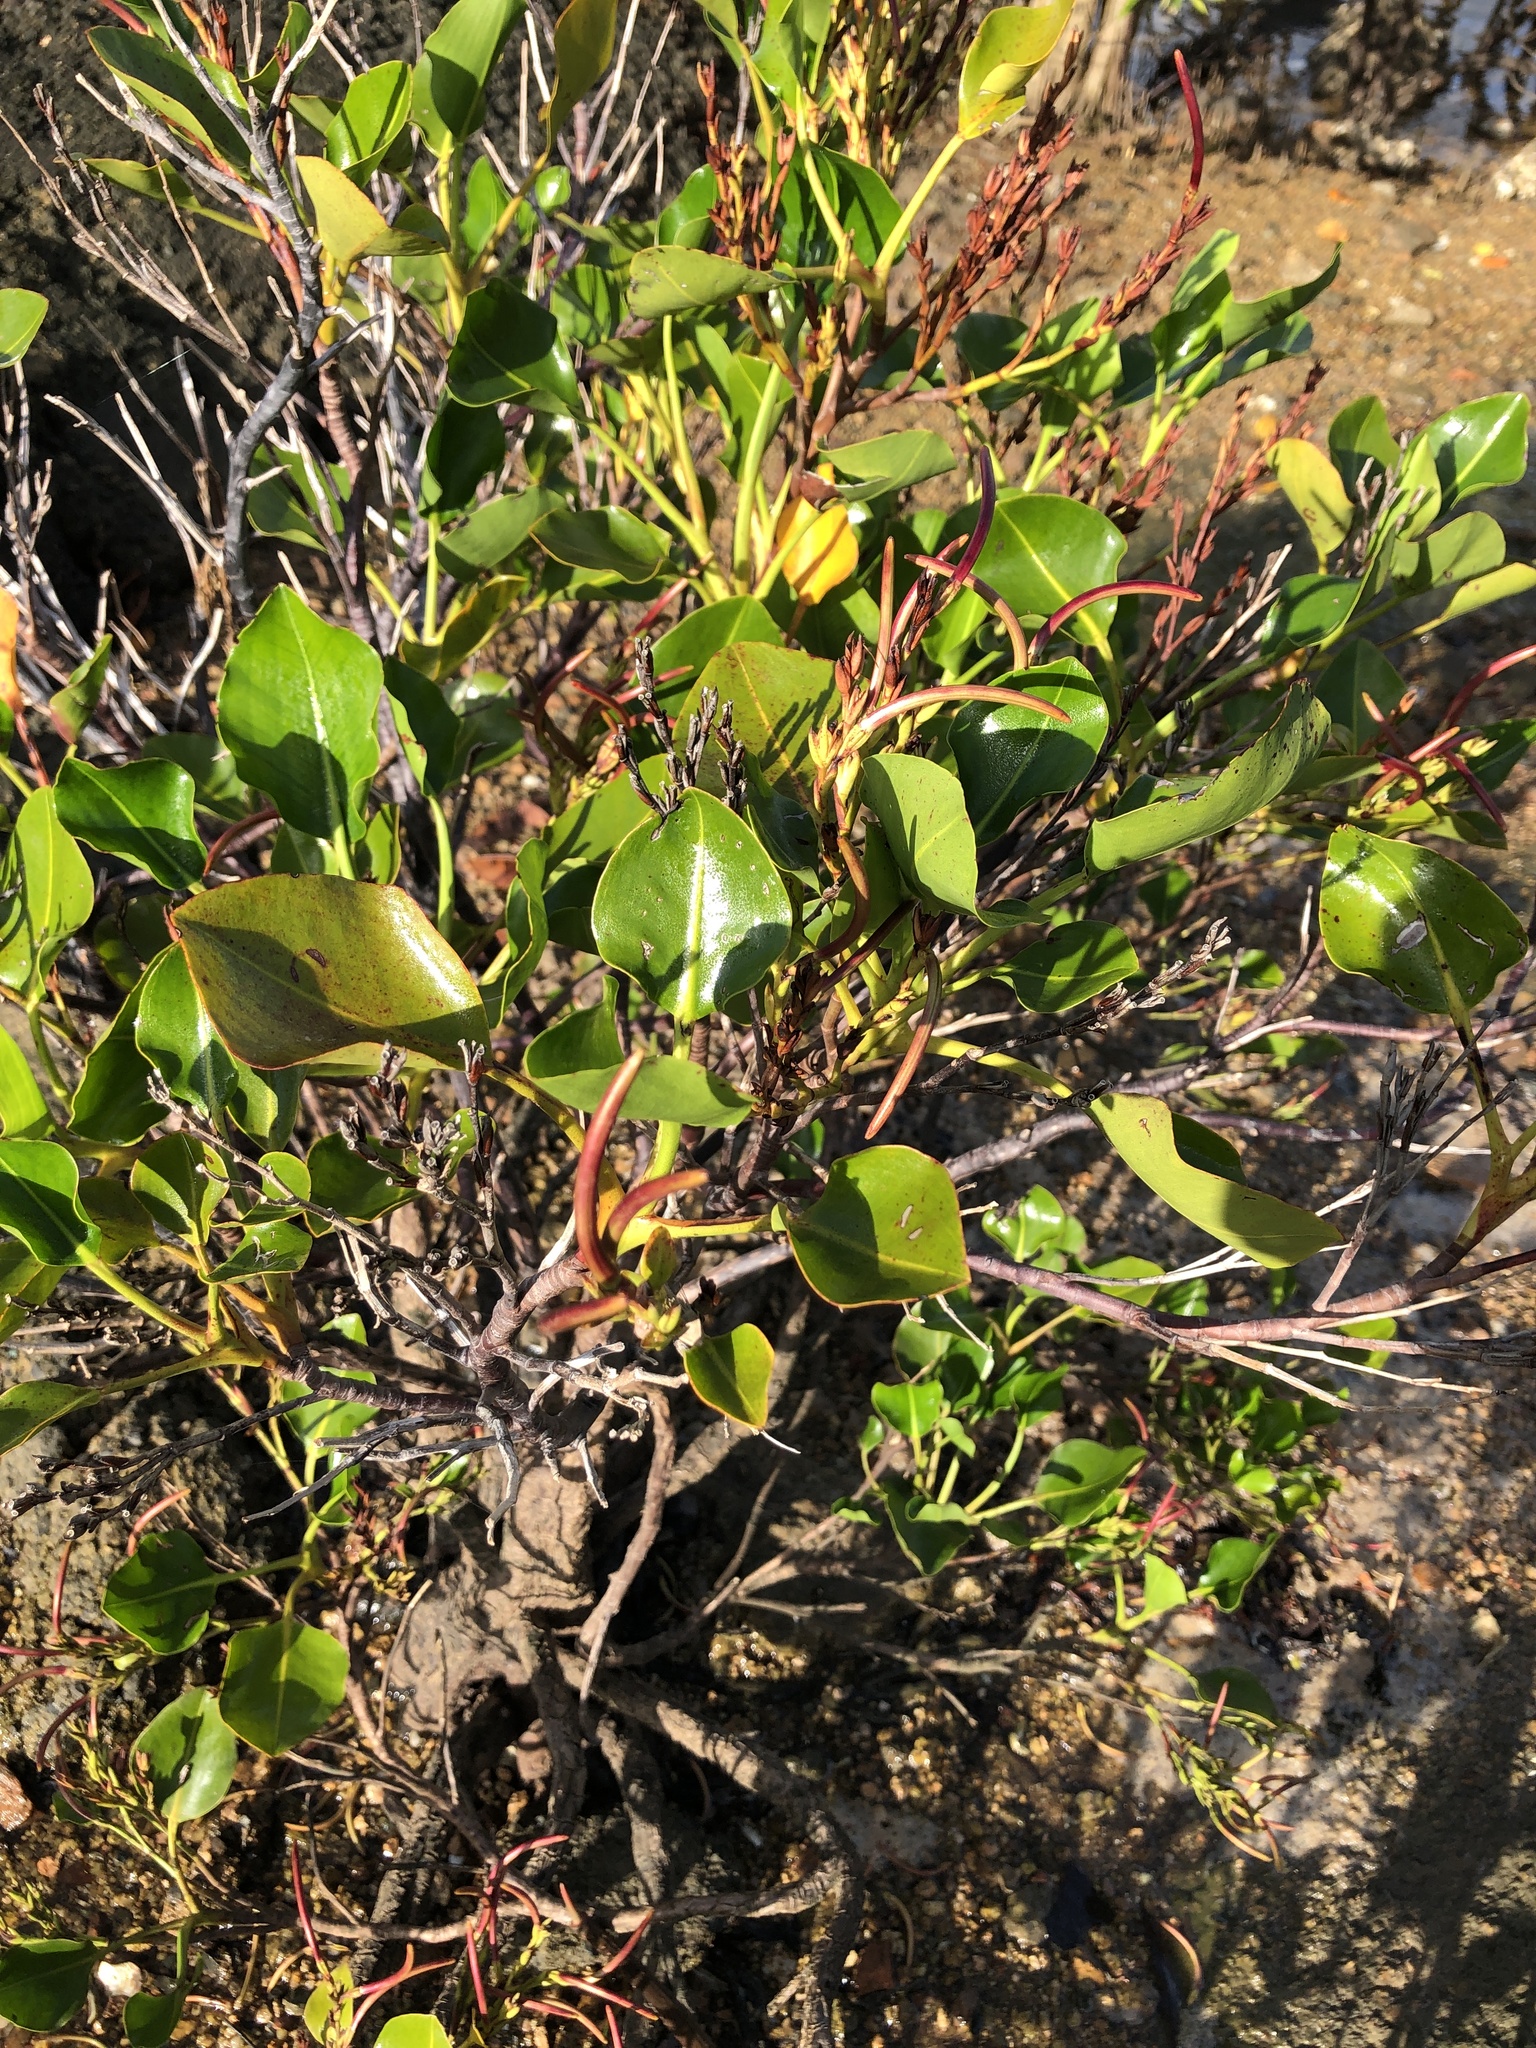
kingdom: Plantae
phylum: Tracheophyta
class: Magnoliopsida
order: Caryophyllales
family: Plumbaginaceae
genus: Aegialitis
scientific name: Aegialitis annulata
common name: Club mangrove
